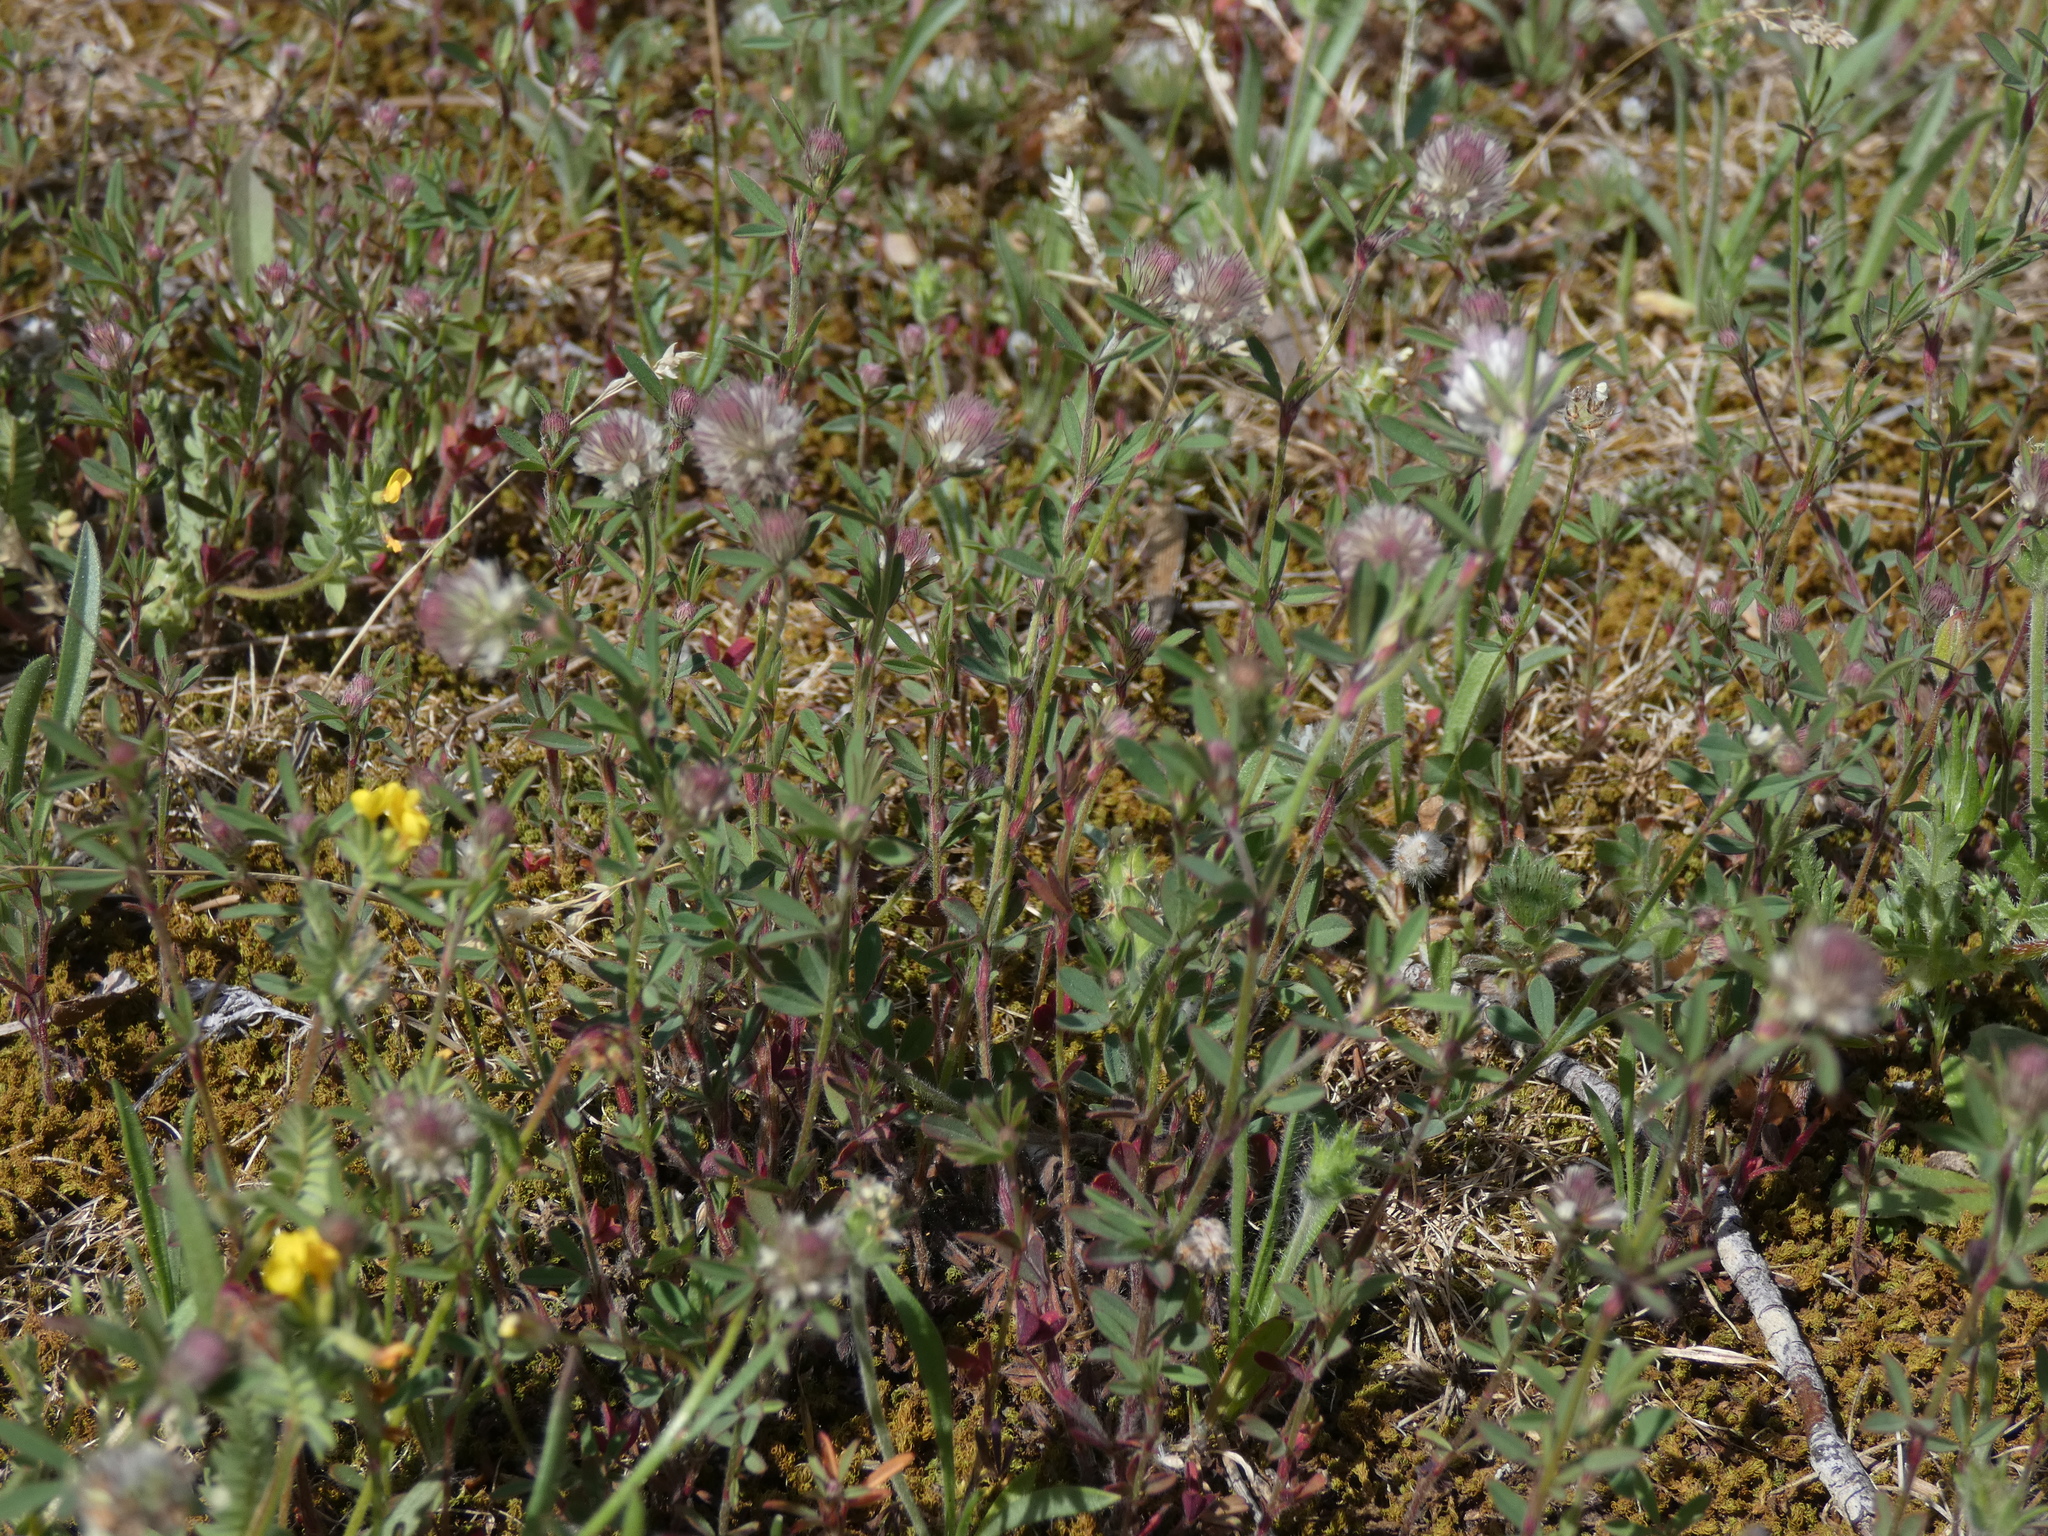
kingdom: Plantae
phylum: Tracheophyta
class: Magnoliopsida
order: Fabales
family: Fabaceae
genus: Trifolium
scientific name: Trifolium arvense
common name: Hare's-foot clover
